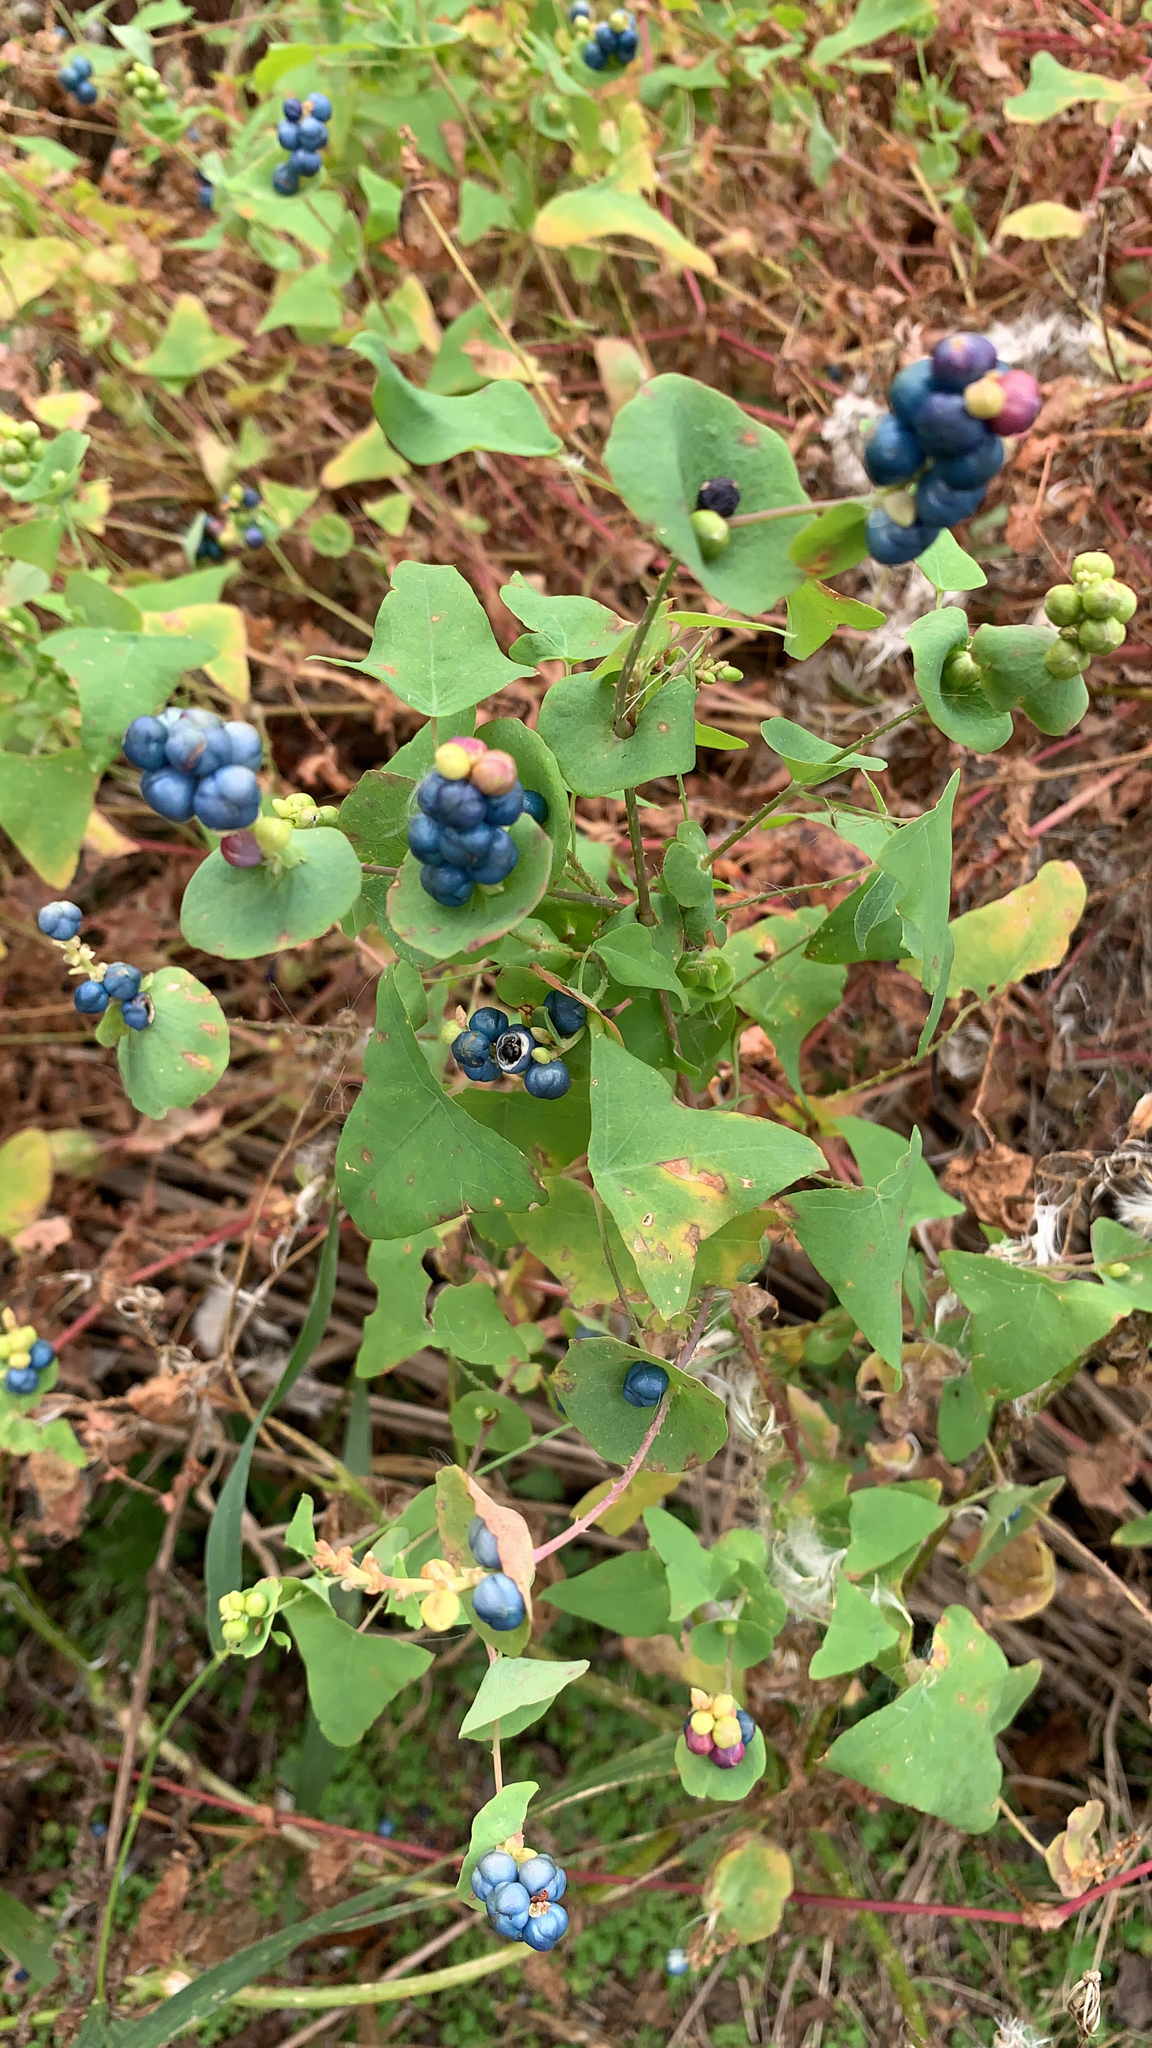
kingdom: Plantae
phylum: Tracheophyta
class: Magnoliopsida
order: Caryophyllales
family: Polygonaceae
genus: Persicaria
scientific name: Persicaria perfoliata
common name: Asiatic tearthumb
